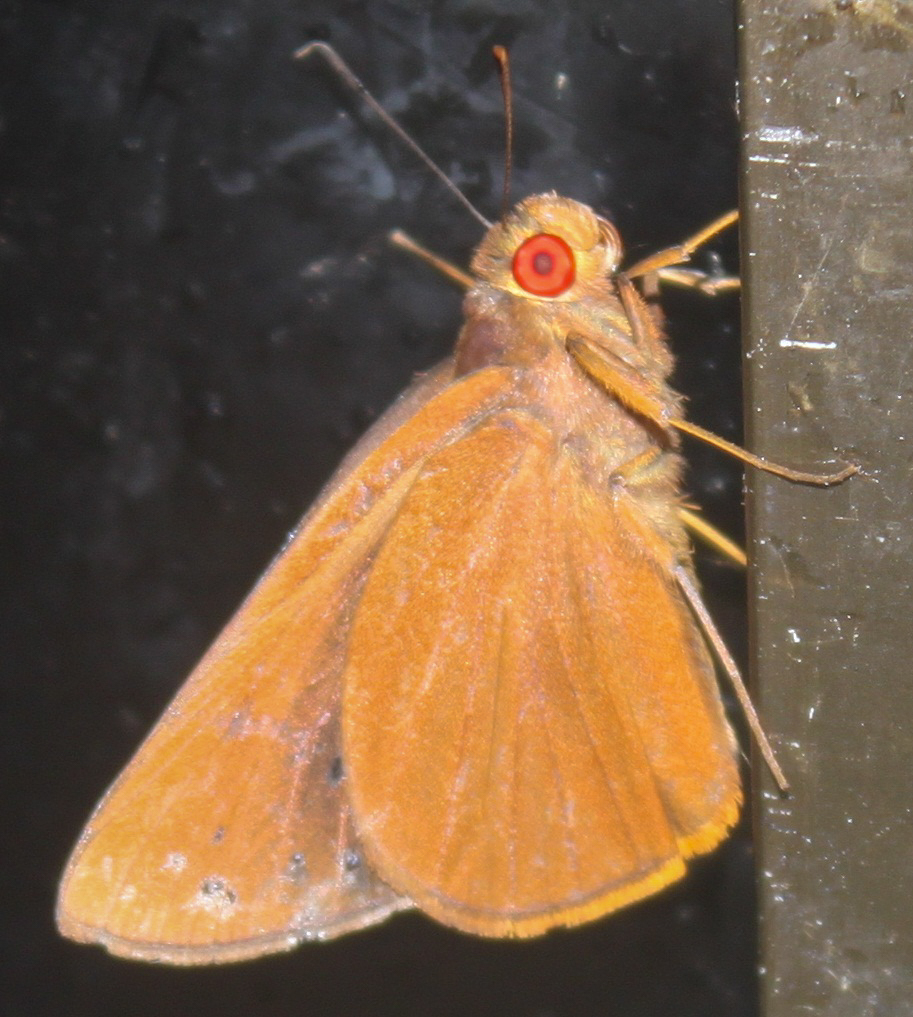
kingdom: Animalia
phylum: Arthropoda
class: Insecta
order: Lepidoptera
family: Hesperiidae
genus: Matapa
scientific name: Matapa druna
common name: Grey-brand redeye
